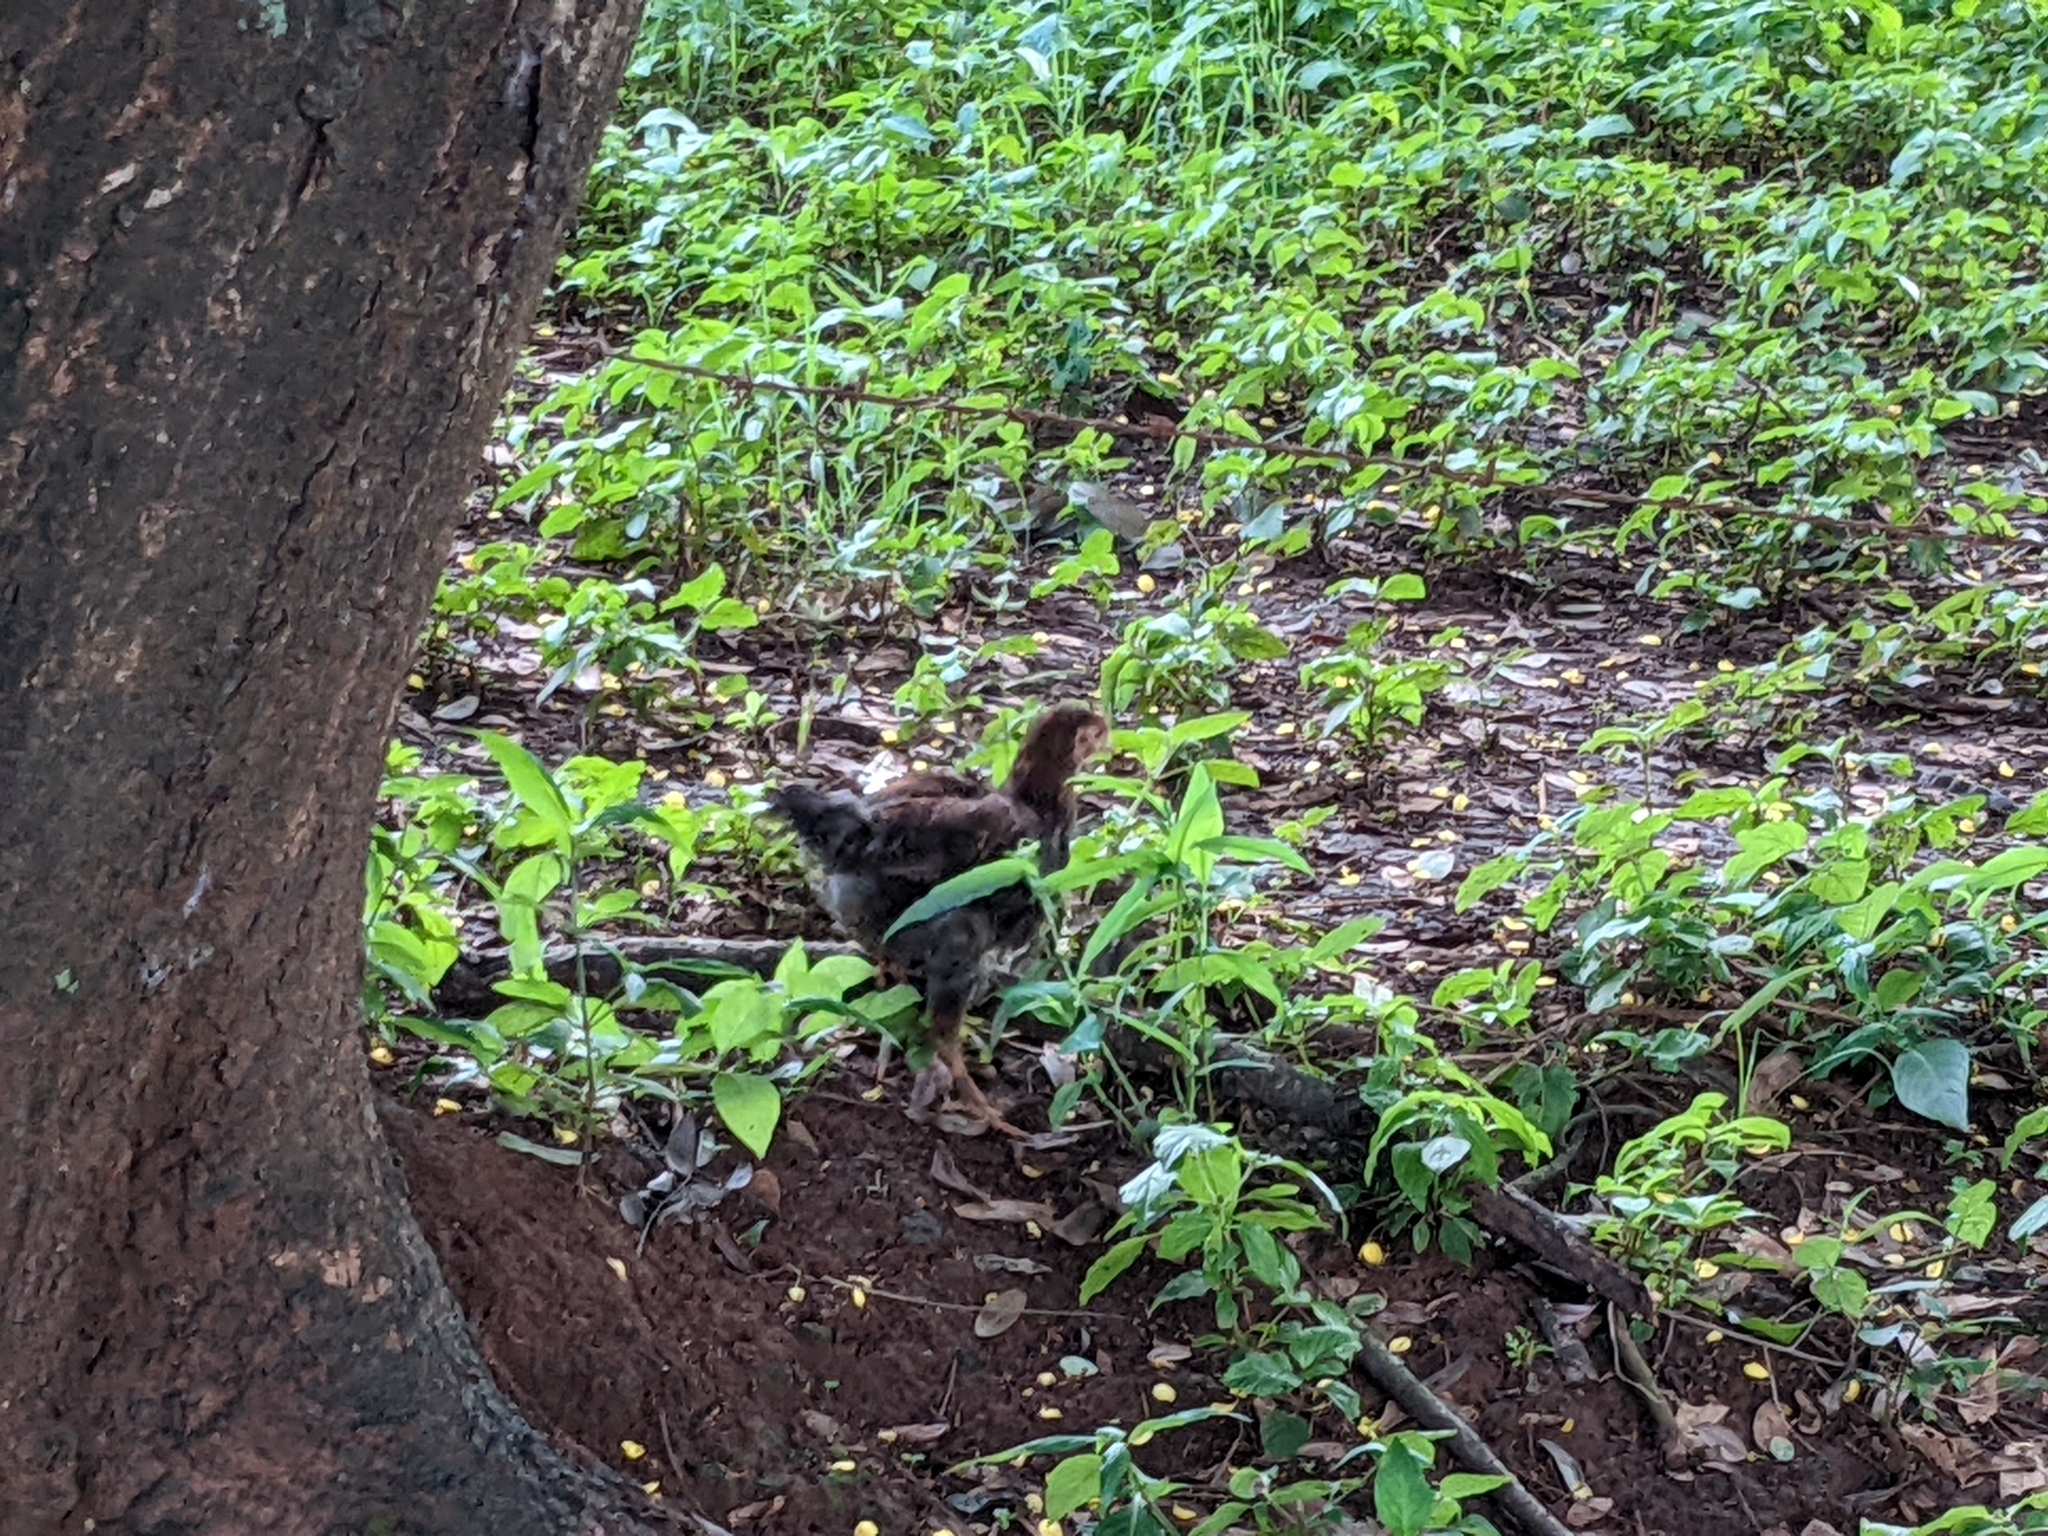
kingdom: Animalia
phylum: Chordata
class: Aves
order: Galliformes
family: Phasianidae
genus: Gallus
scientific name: Gallus gallus
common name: Red junglefowl
